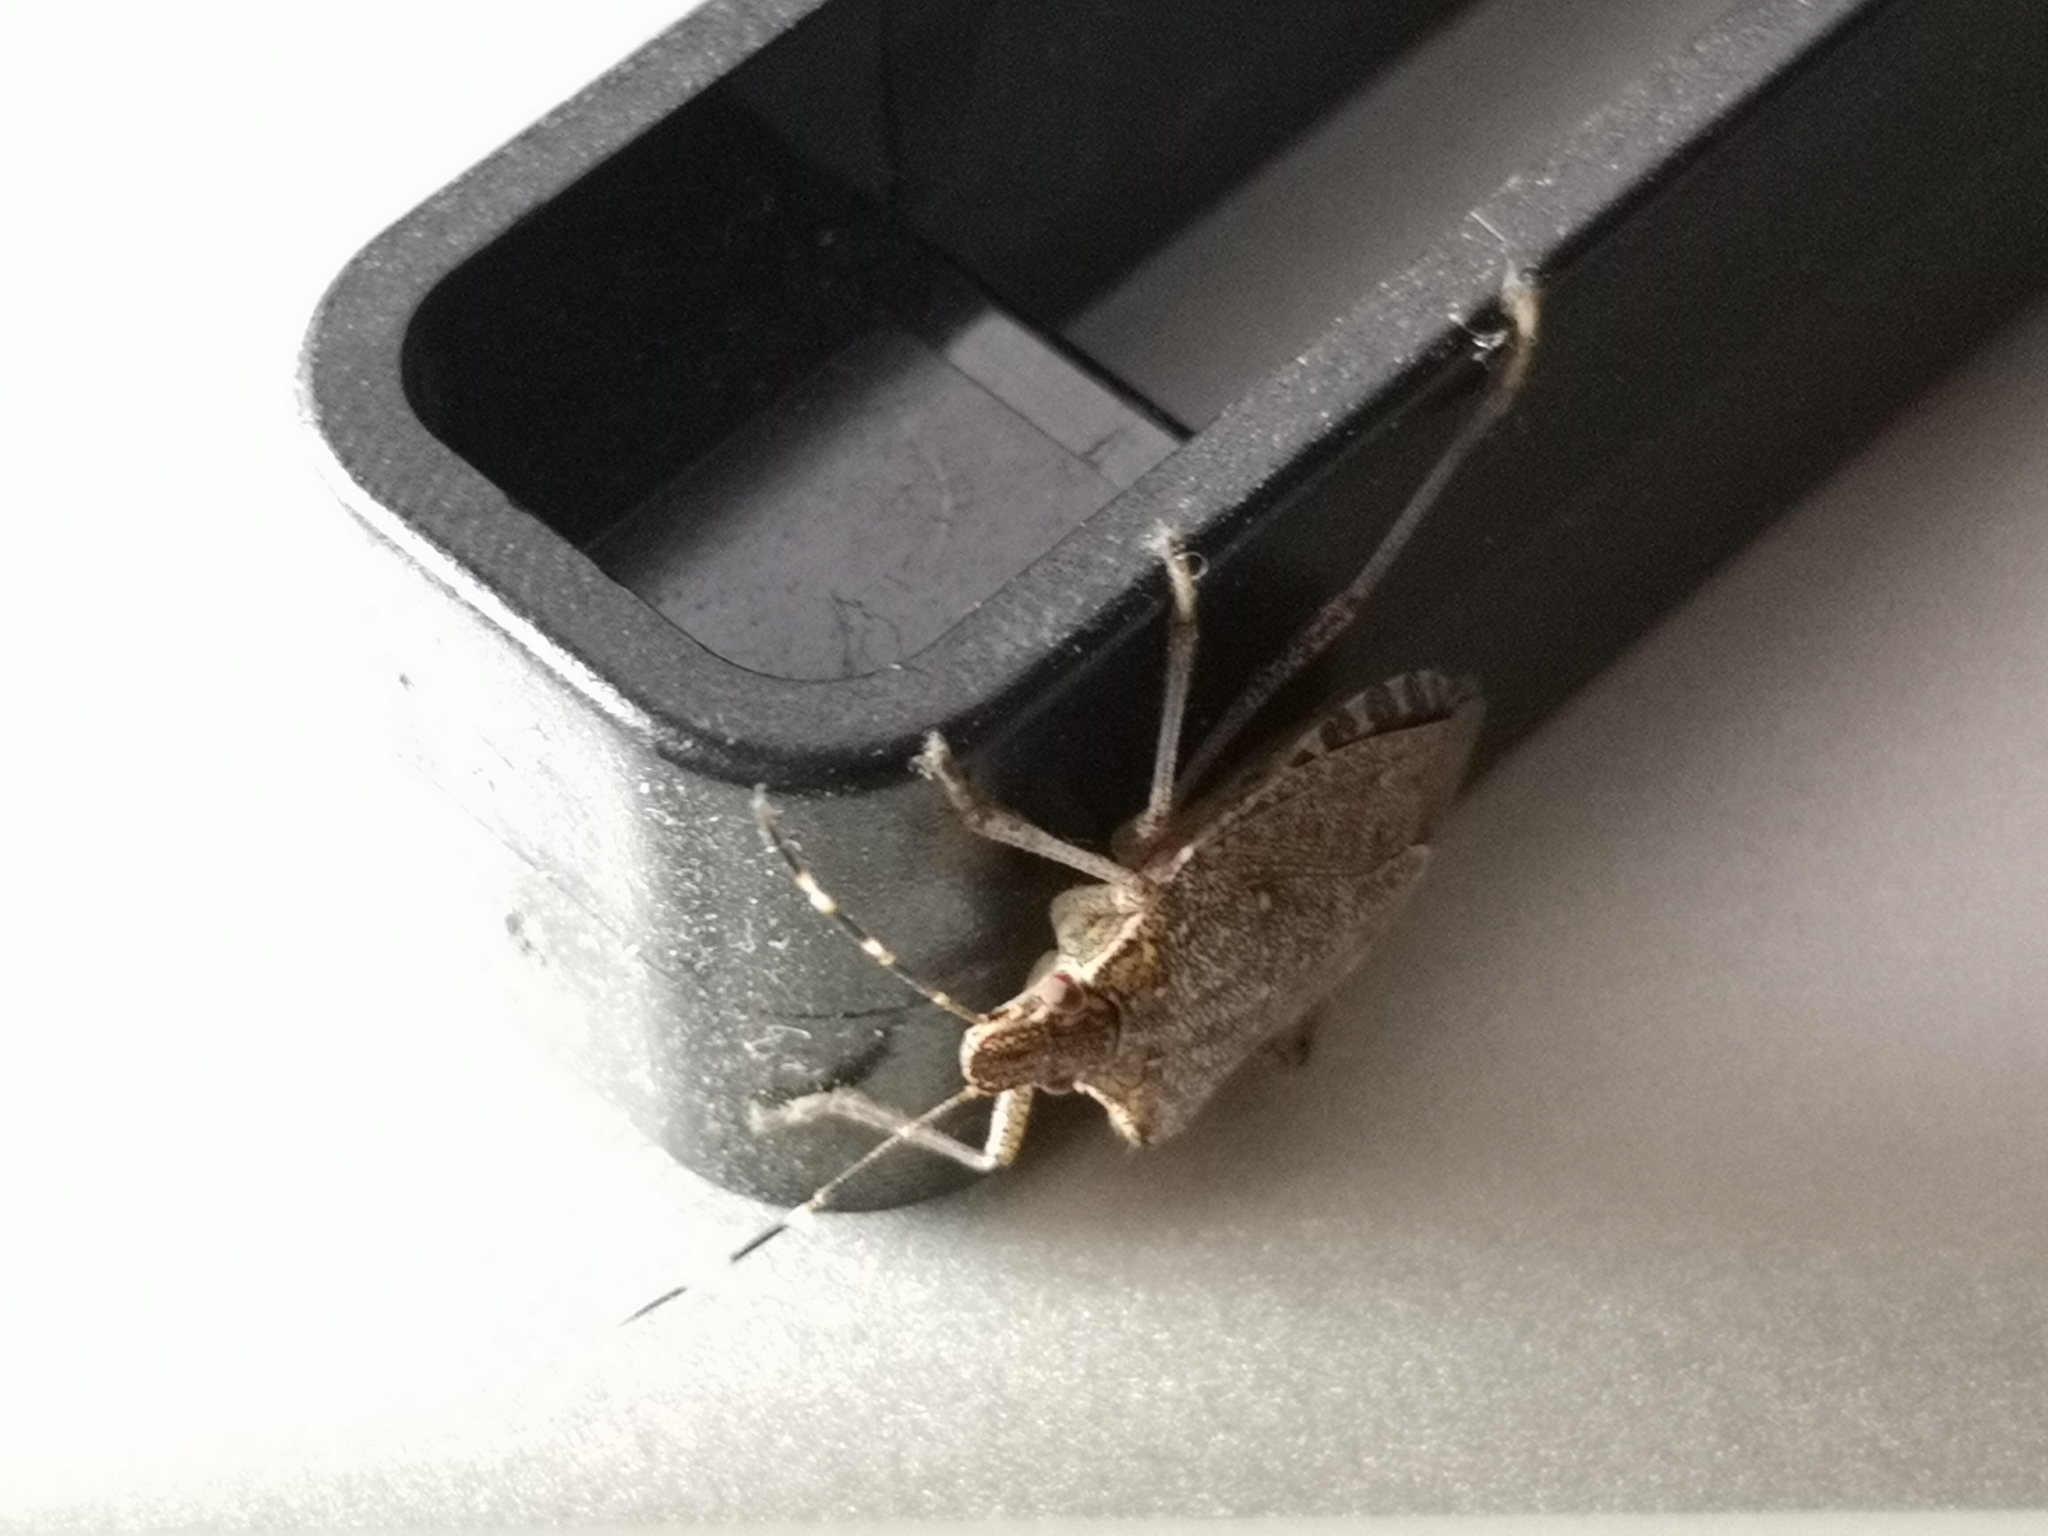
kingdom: Animalia
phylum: Arthropoda
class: Insecta
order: Hemiptera
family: Pentatomidae
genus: Halyomorpha
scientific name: Halyomorpha halys
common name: Brown marmorated stink bug
